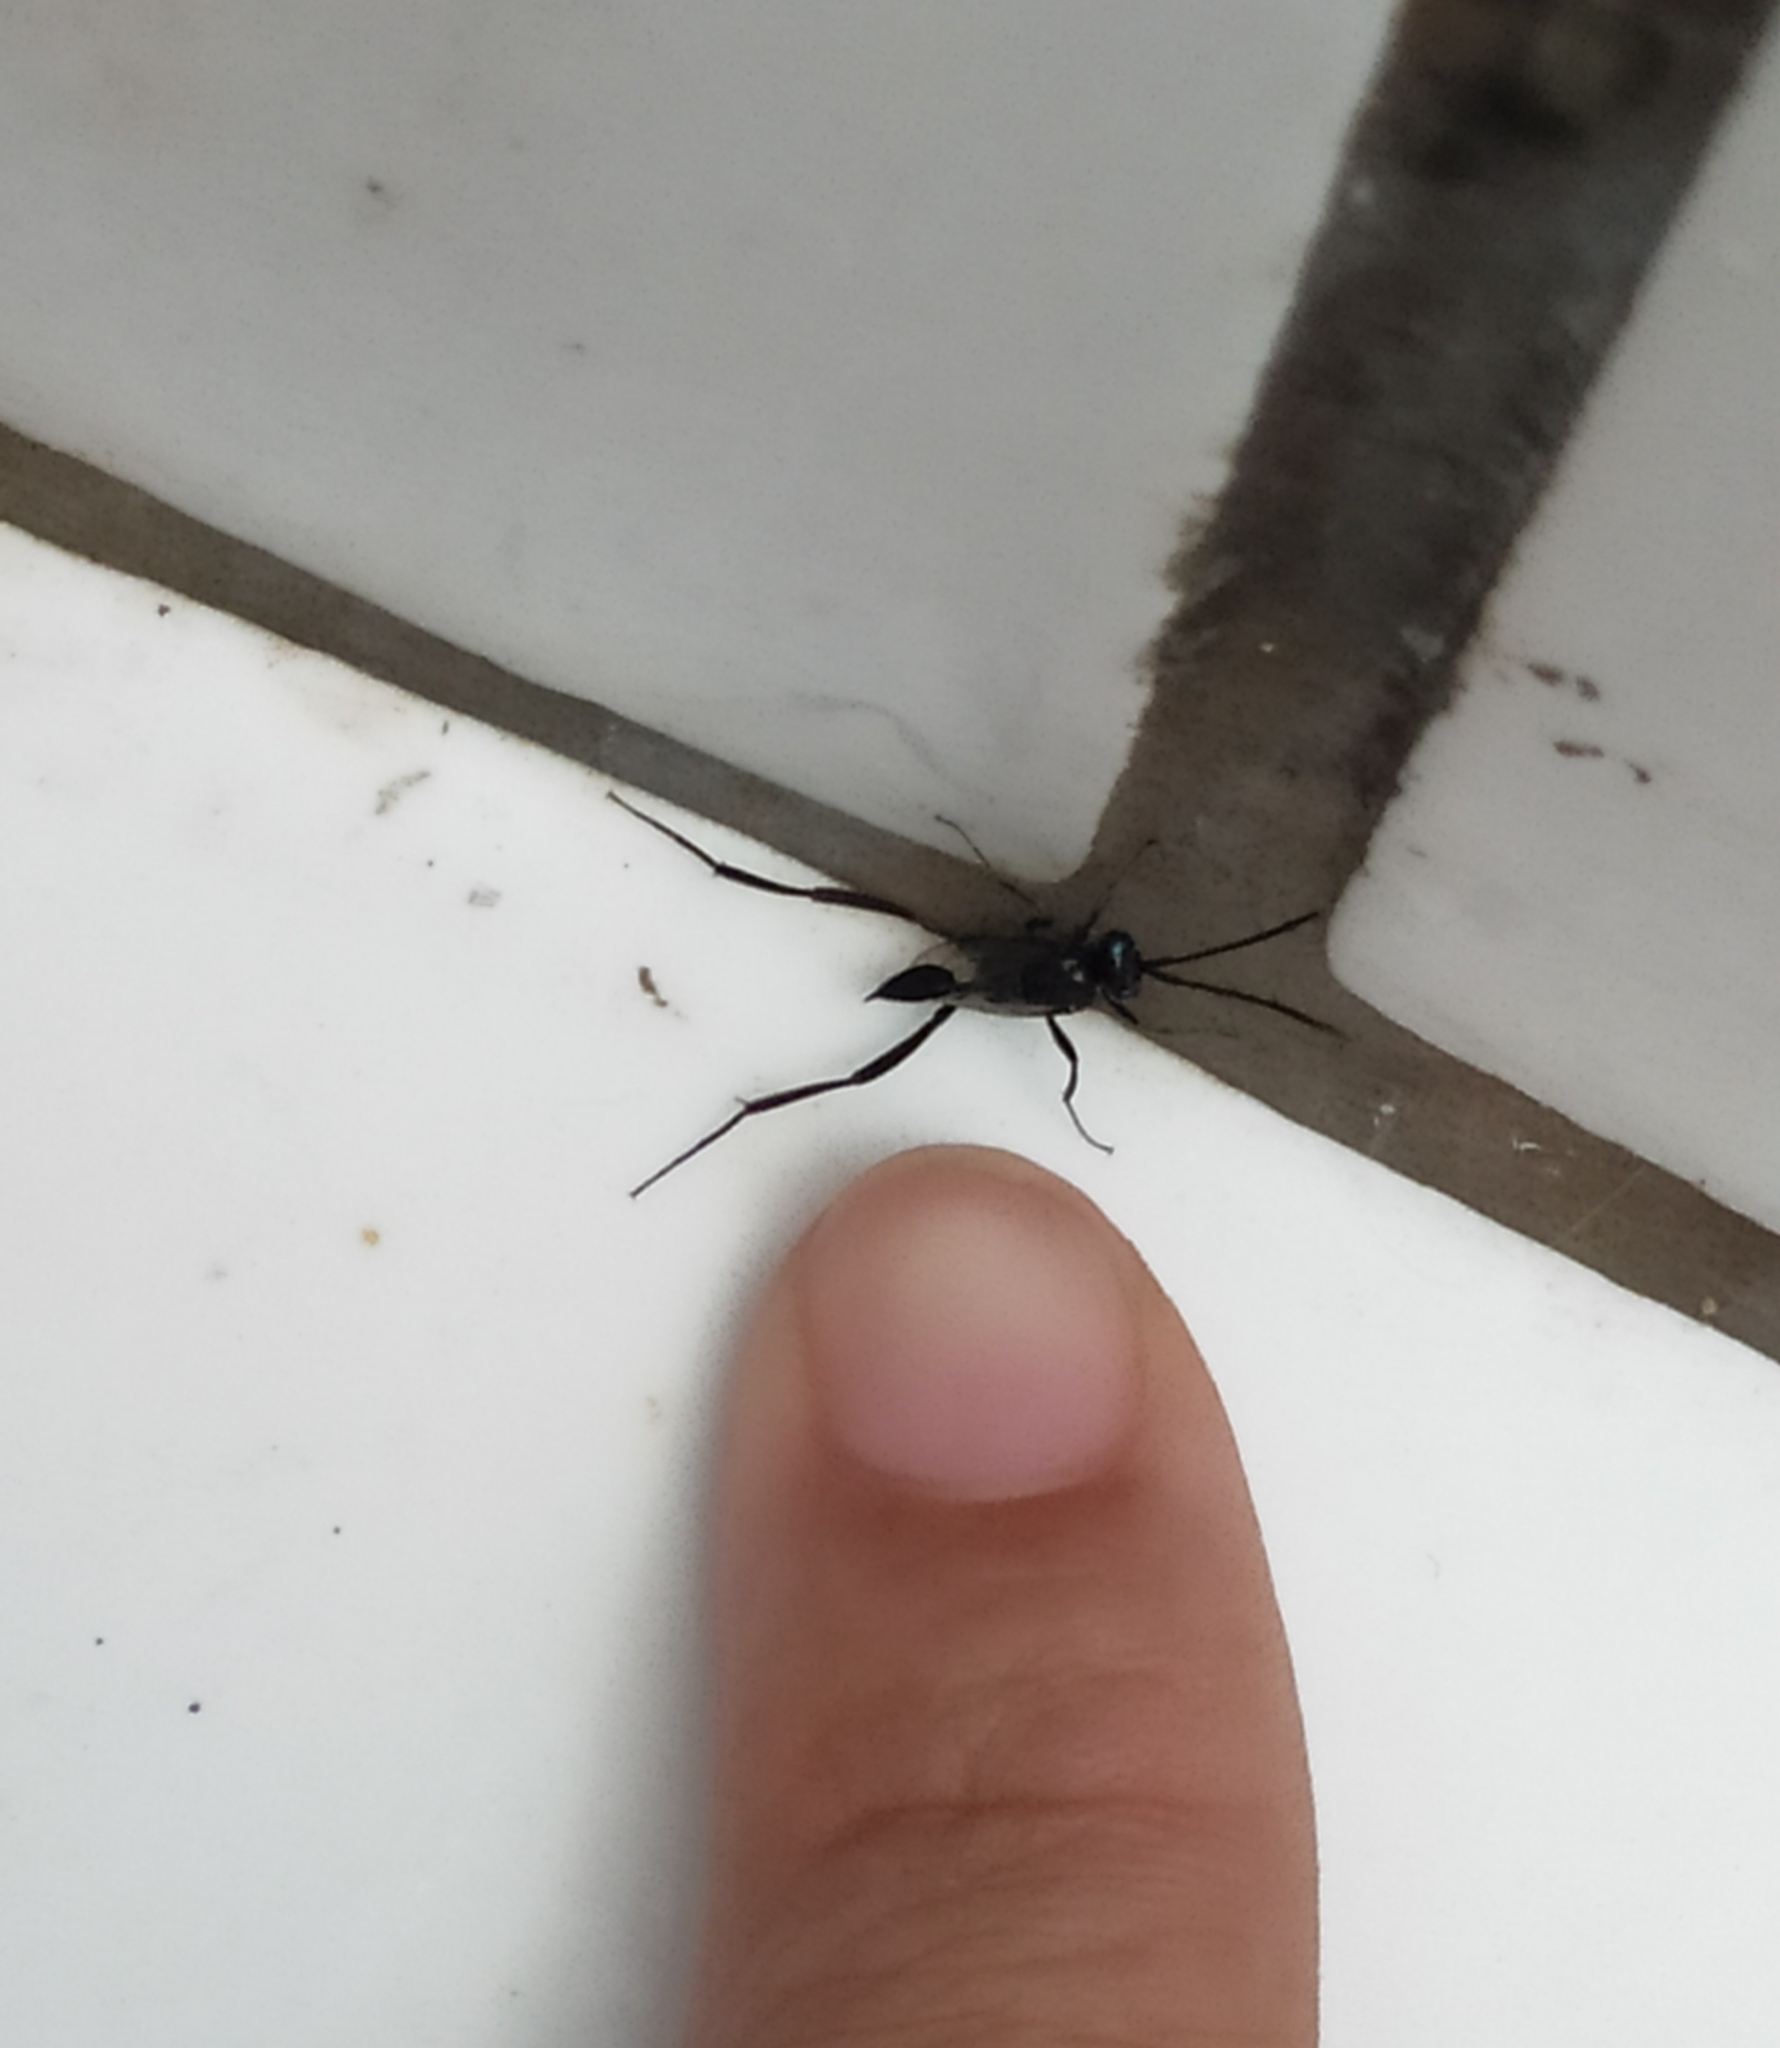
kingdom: Animalia
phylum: Arthropoda
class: Insecta
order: Hymenoptera
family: Evaniidae
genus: Evania
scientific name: Evania appendigaster
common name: Ensign wasp
